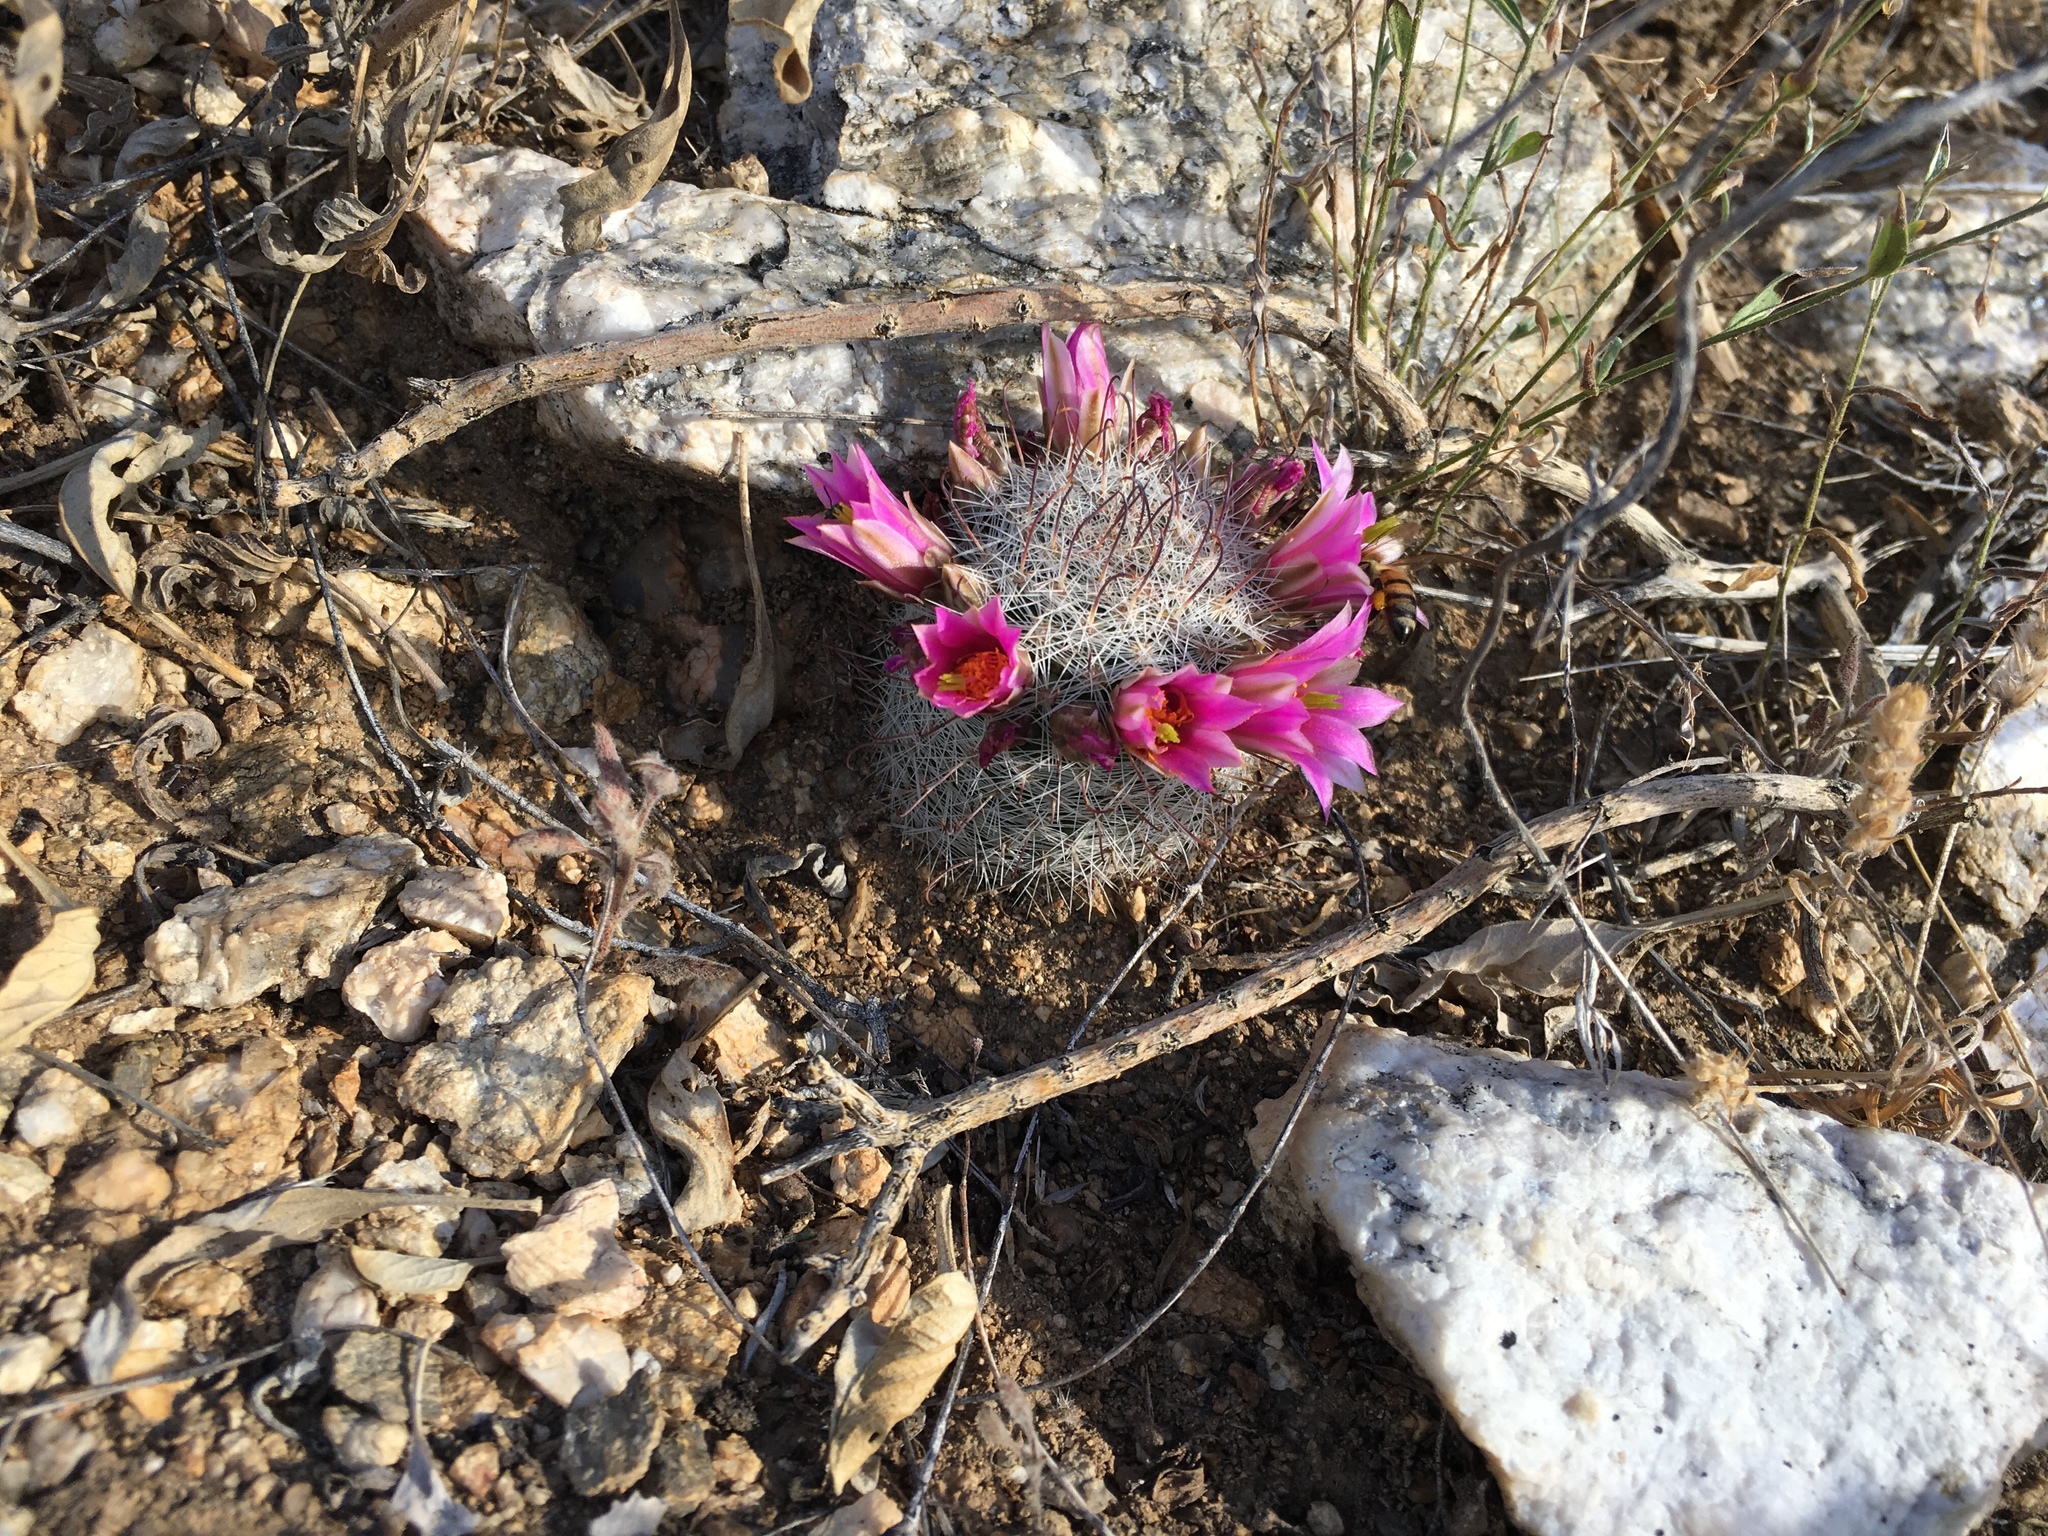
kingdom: Plantae
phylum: Tracheophyta
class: Magnoliopsida
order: Caryophyllales
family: Cactaceae
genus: Cochemiea
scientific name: Cochemiea grahamii
